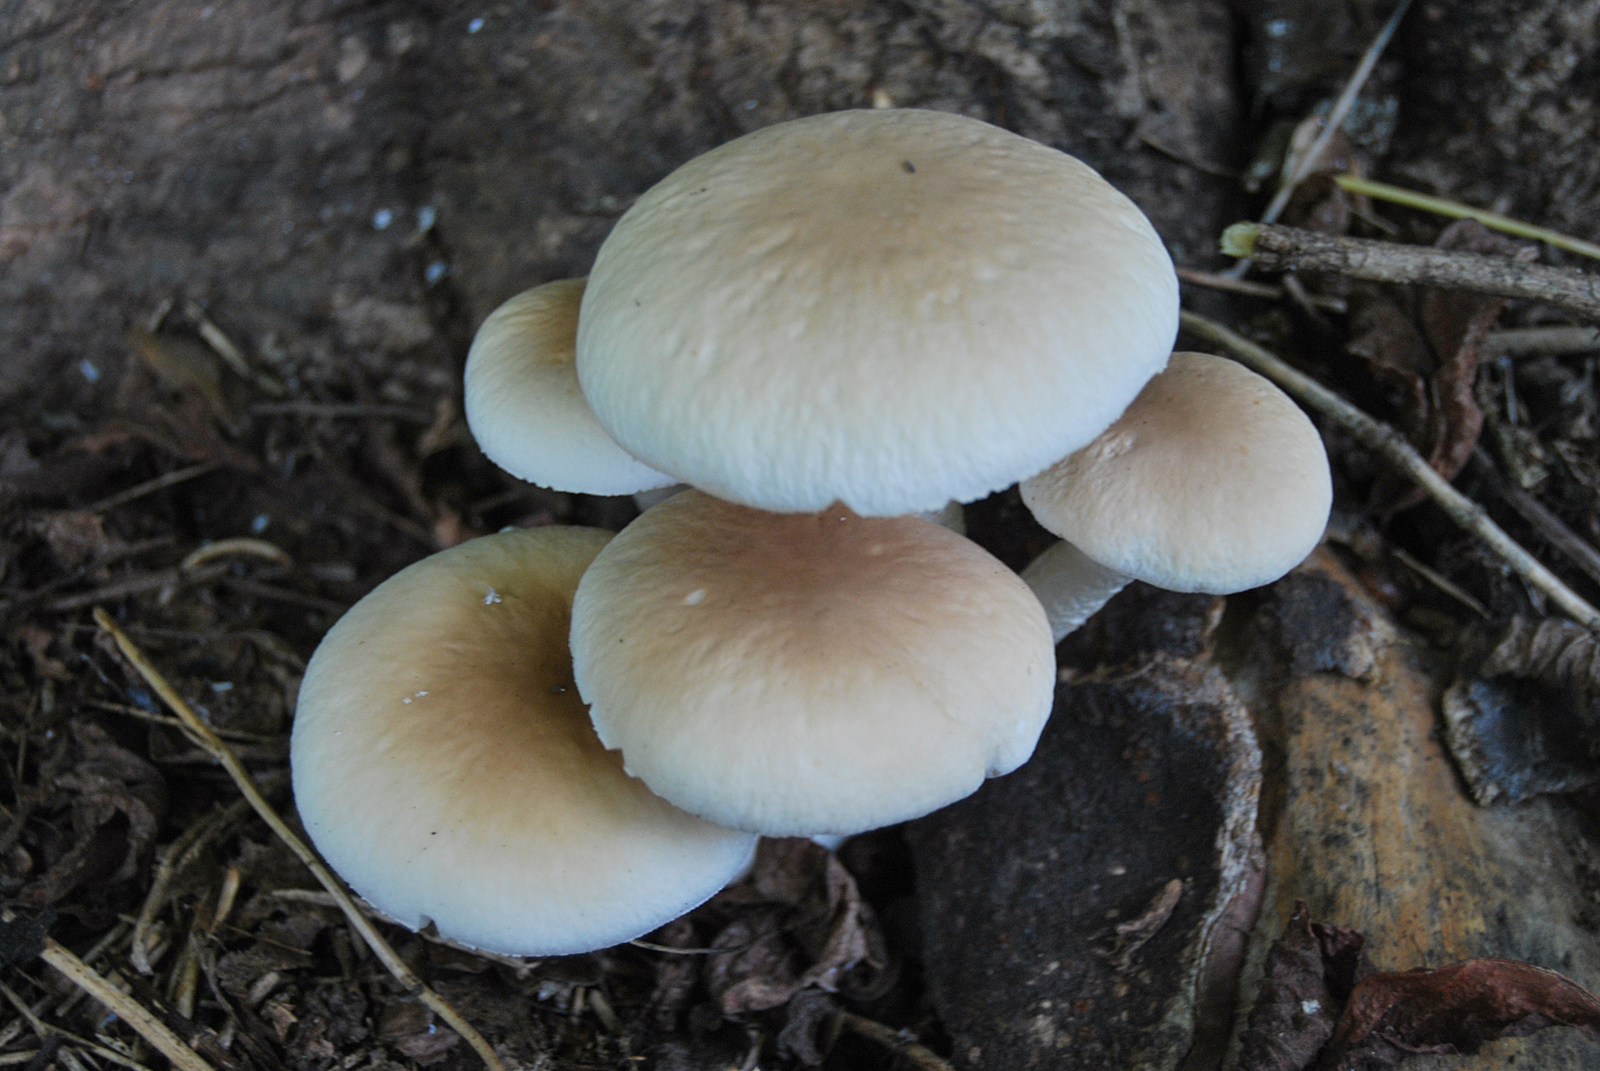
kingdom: Fungi
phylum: Basidiomycota
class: Agaricomycetes
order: Agaricales
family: Tubariaceae
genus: Cyclocybe
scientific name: Cyclocybe cylindracea
